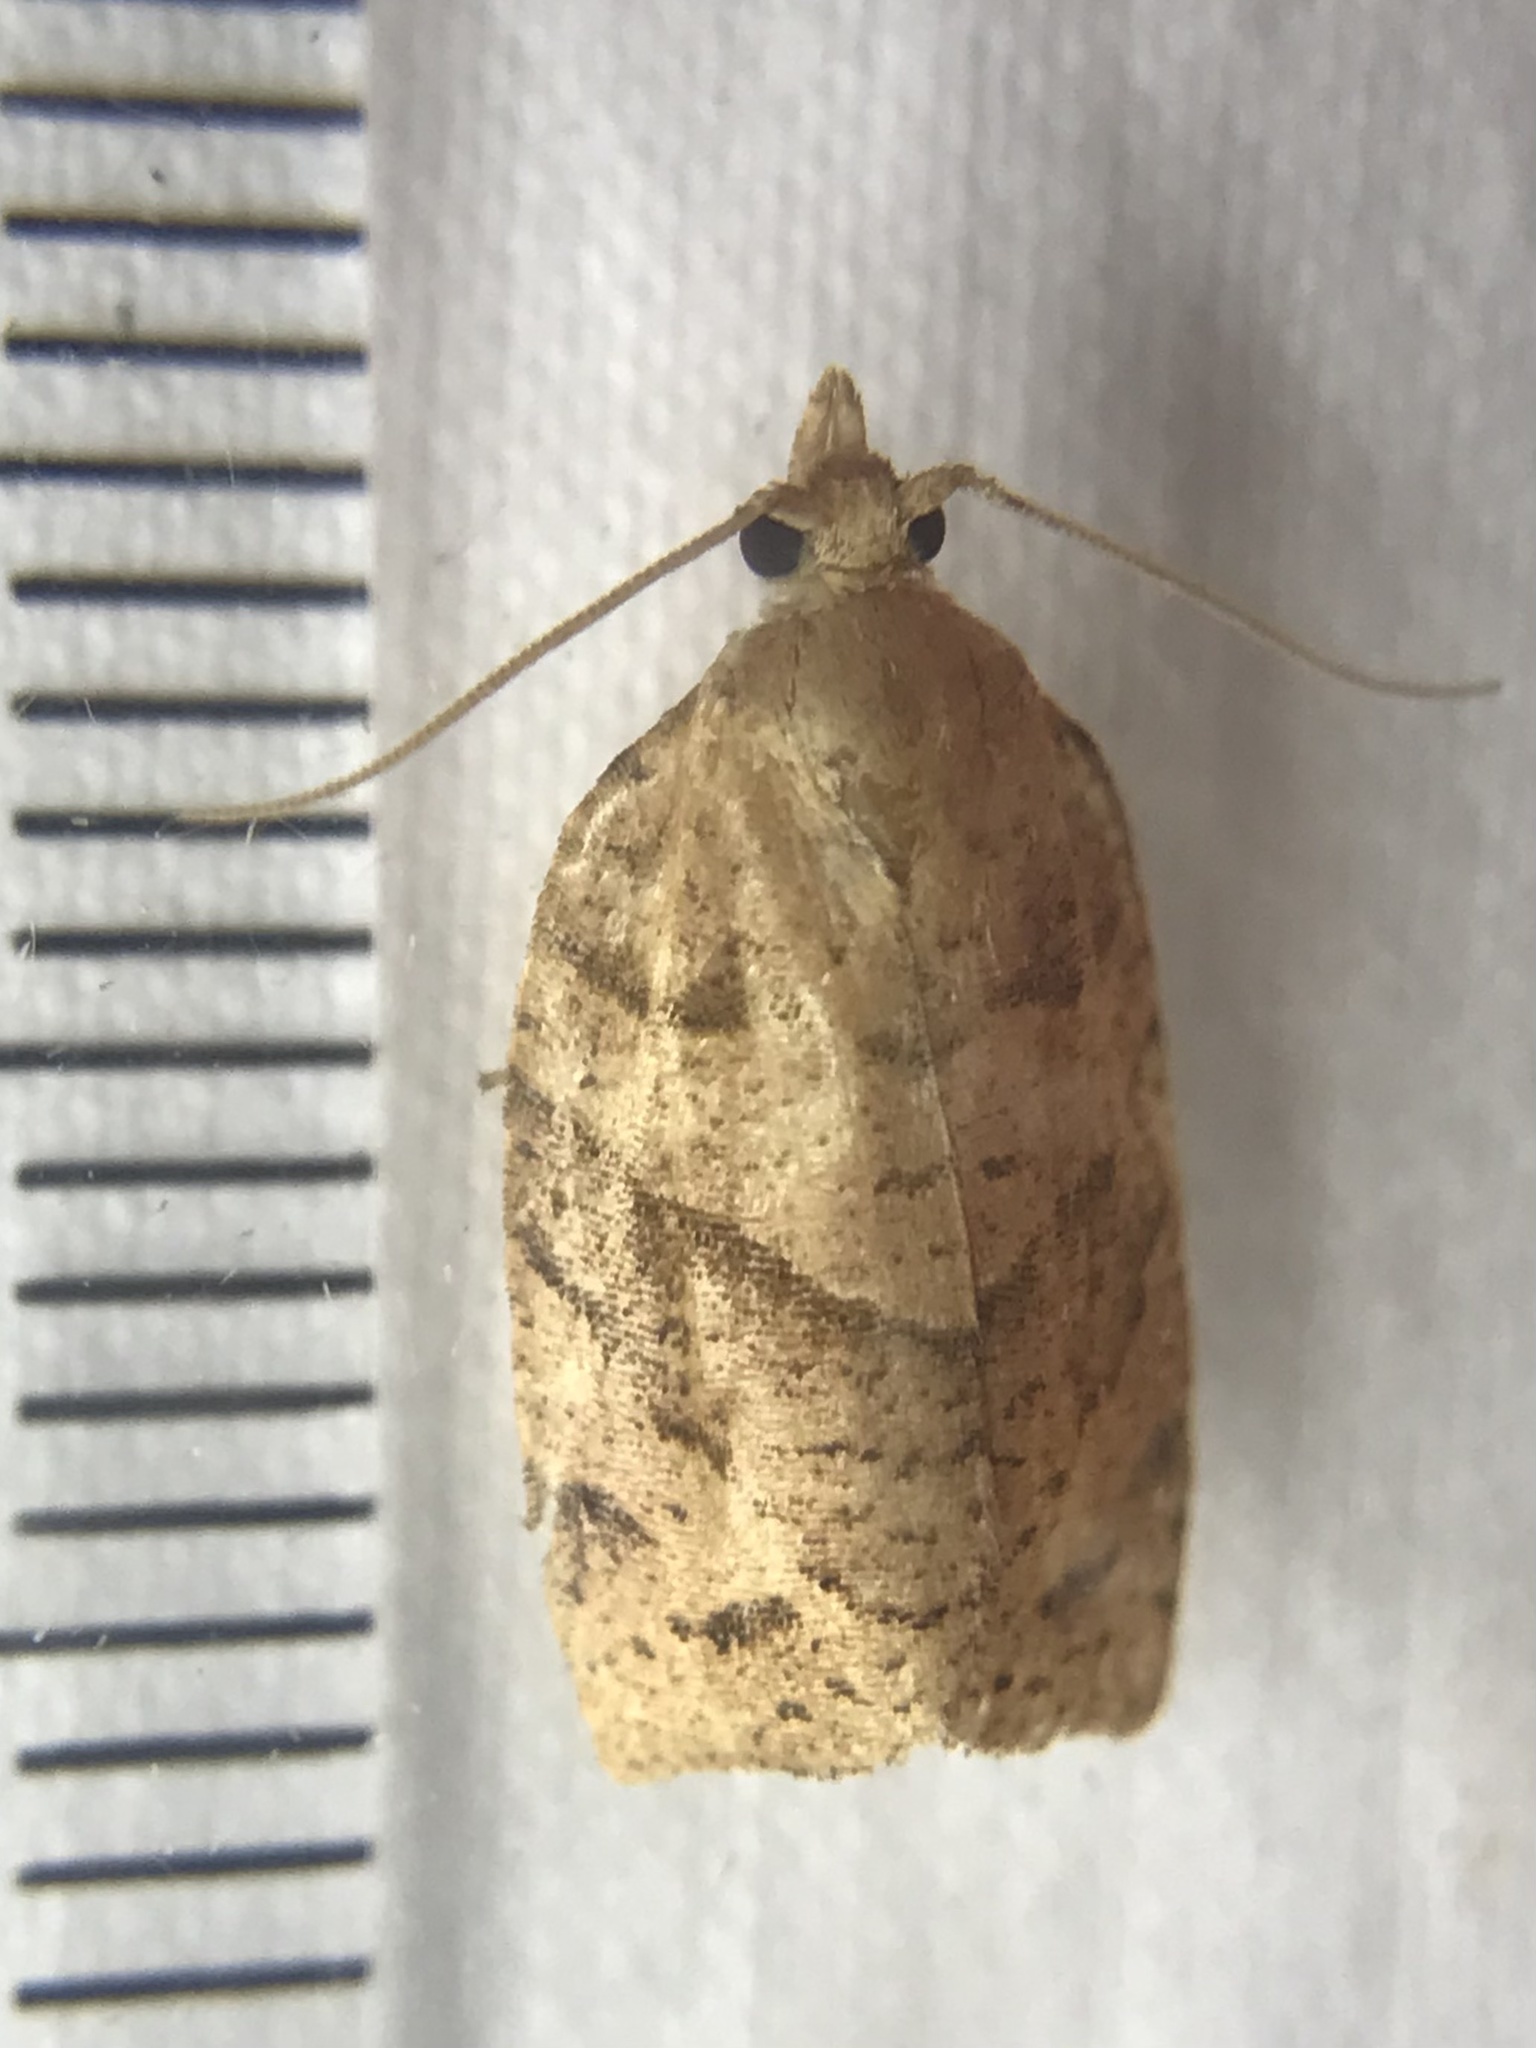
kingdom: Animalia
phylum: Arthropoda
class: Insecta
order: Lepidoptera
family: Tortricidae
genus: Pandemis
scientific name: Pandemis lamprosana
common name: Woodgrain leafroller moth
